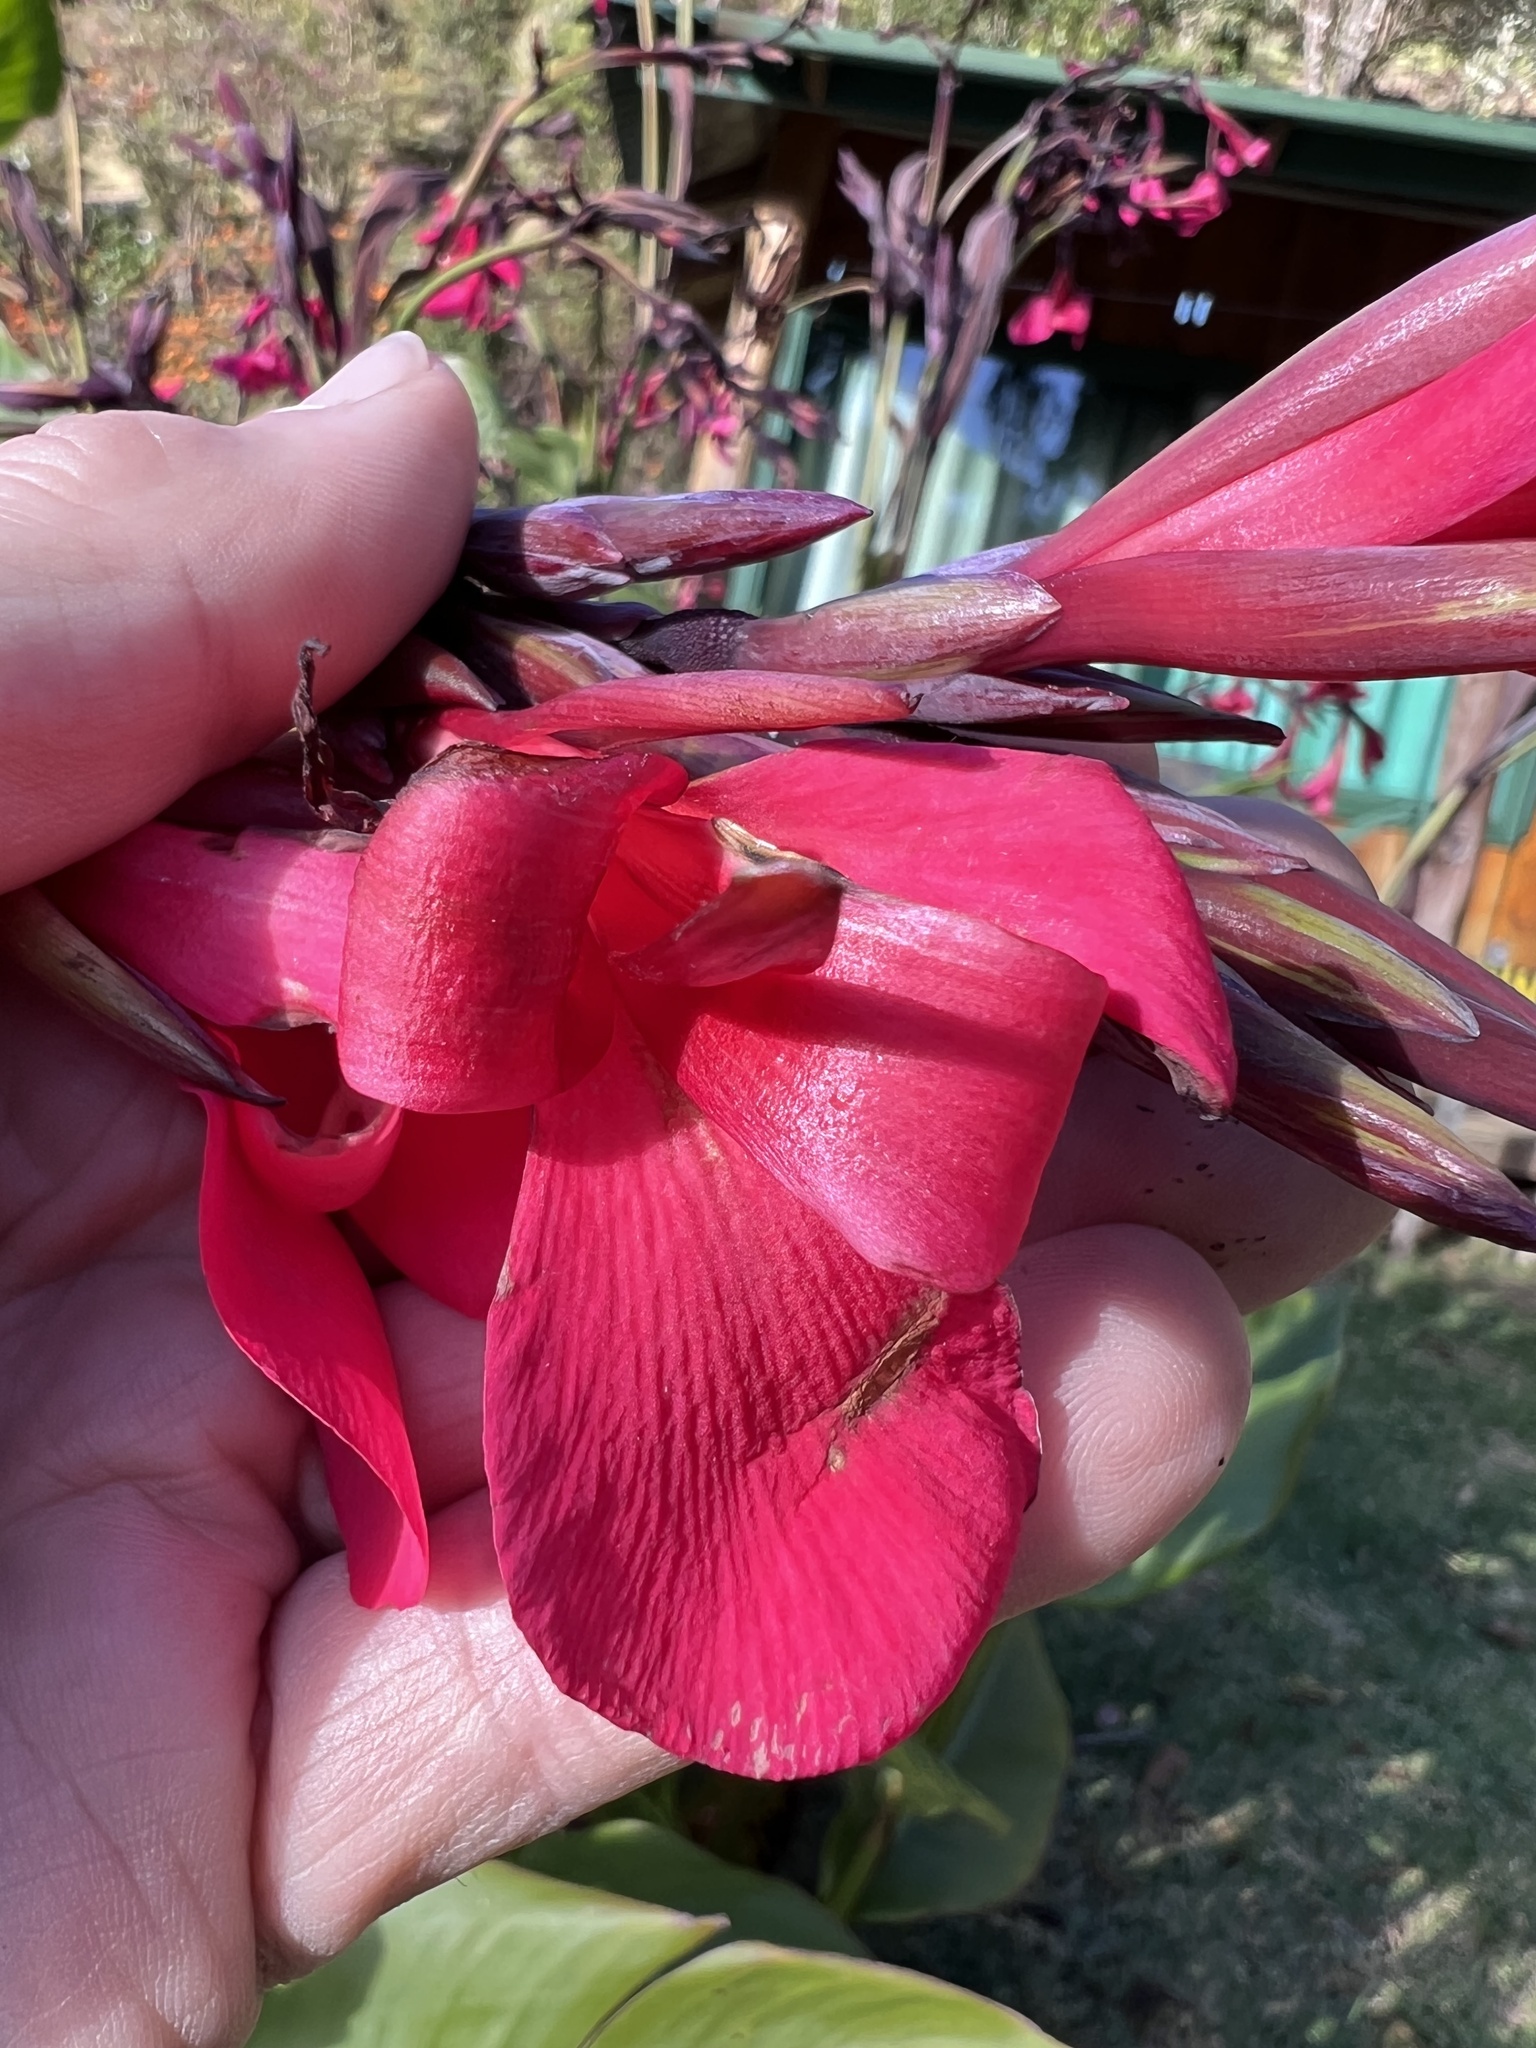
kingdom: Plantae
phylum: Tracheophyta
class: Liliopsida
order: Zingiberales
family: Cannaceae
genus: Canna
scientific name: Canna iridiflora
